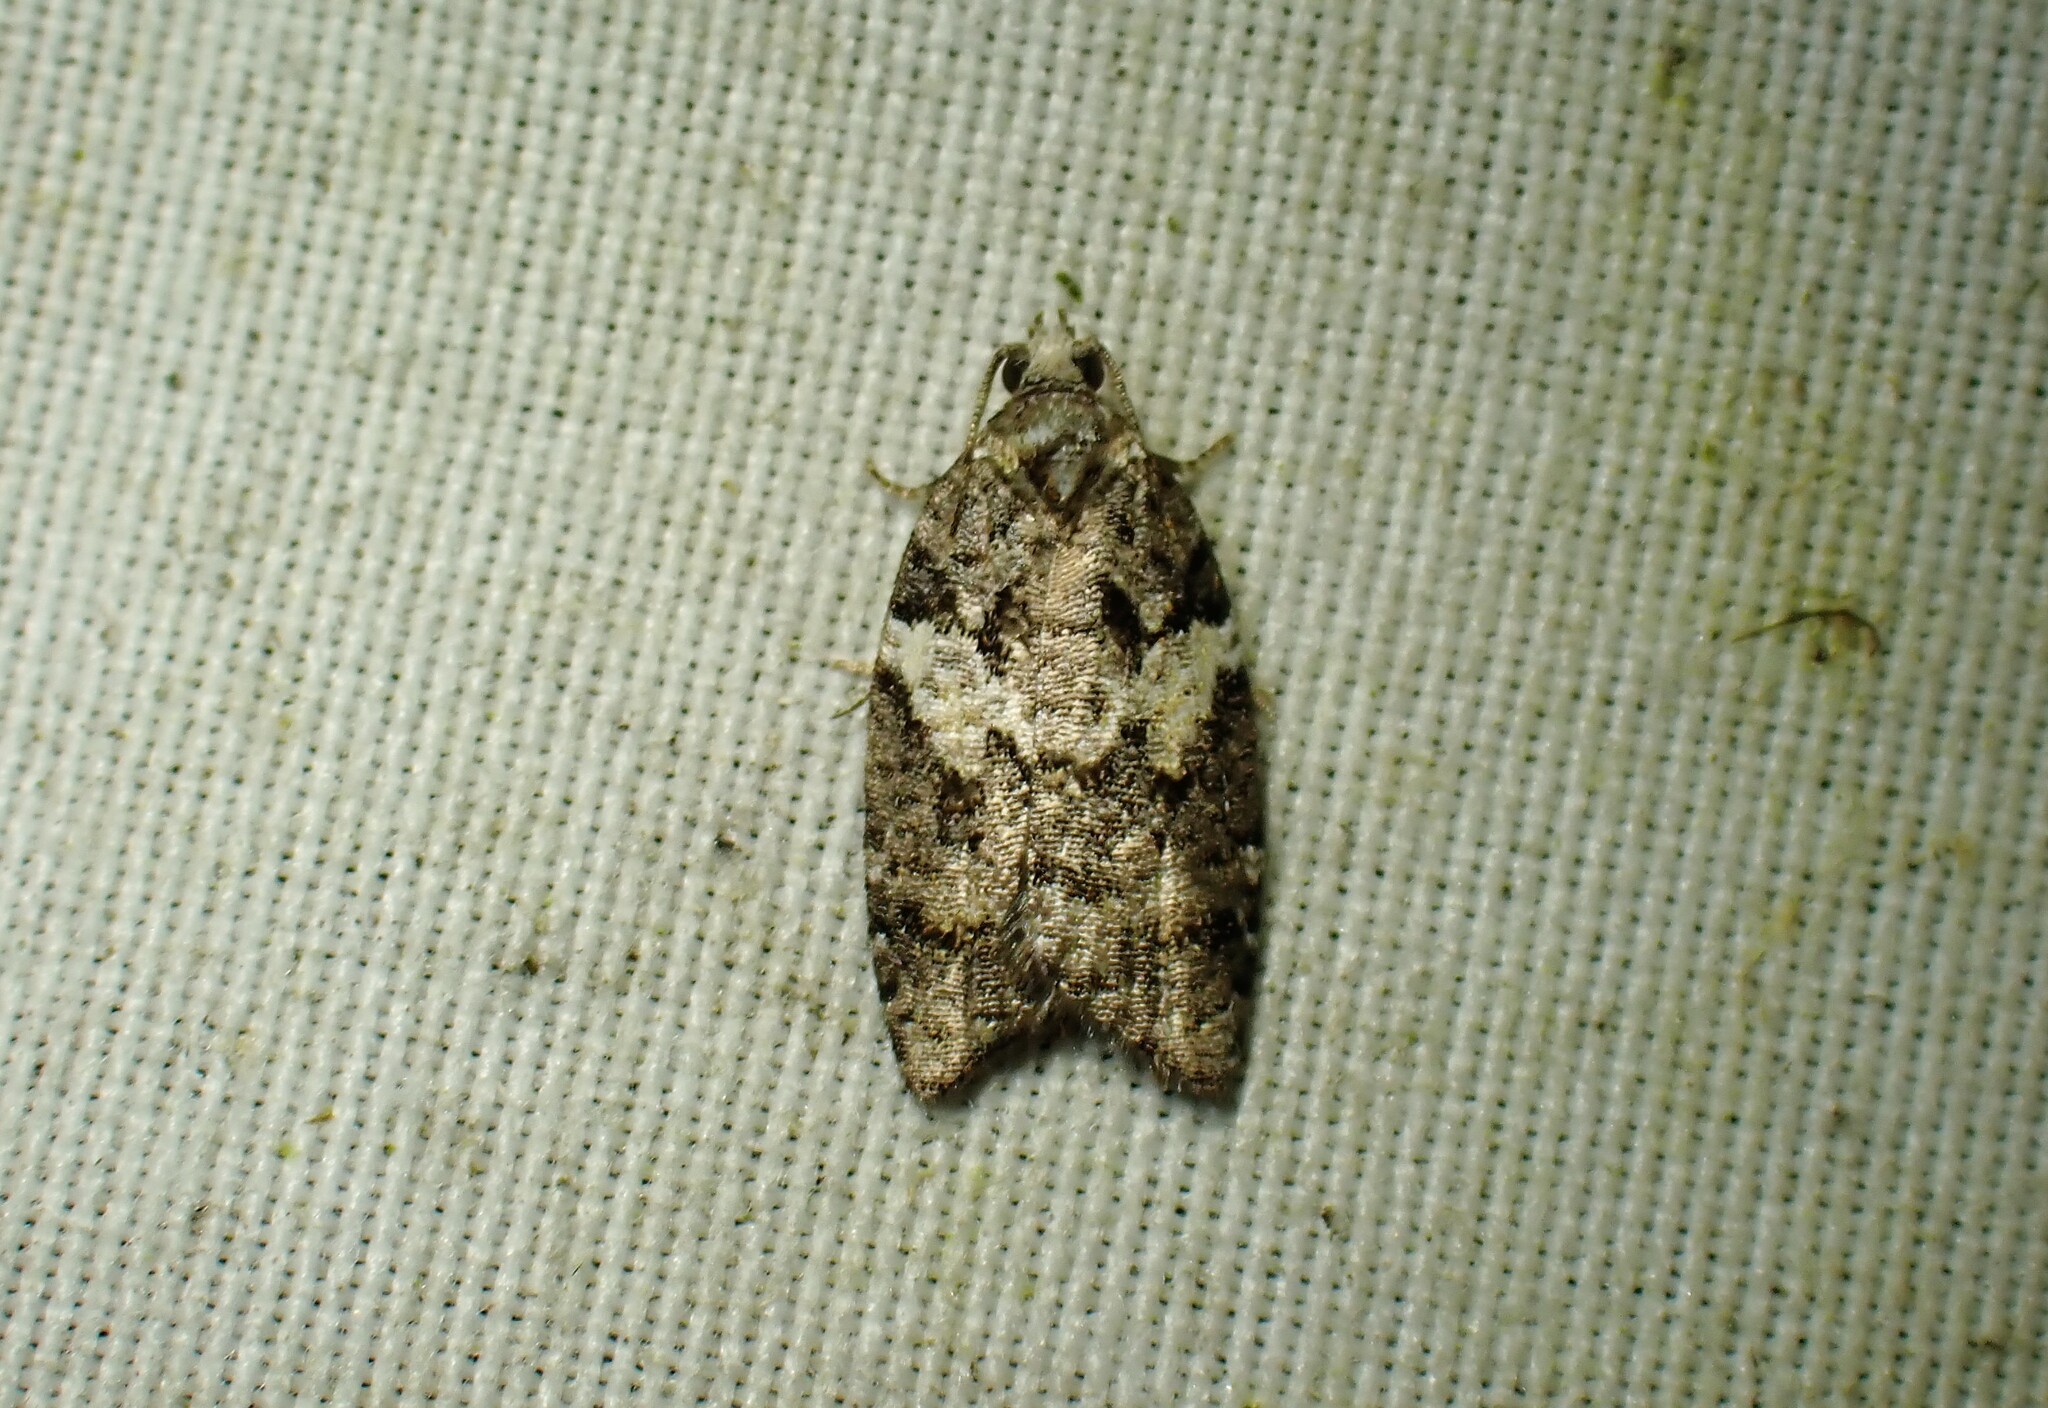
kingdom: Animalia
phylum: Arthropoda
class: Insecta
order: Lepidoptera
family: Tortricidae
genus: Acleris
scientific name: Acleris variana
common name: Eastern black-headed budworm moth
